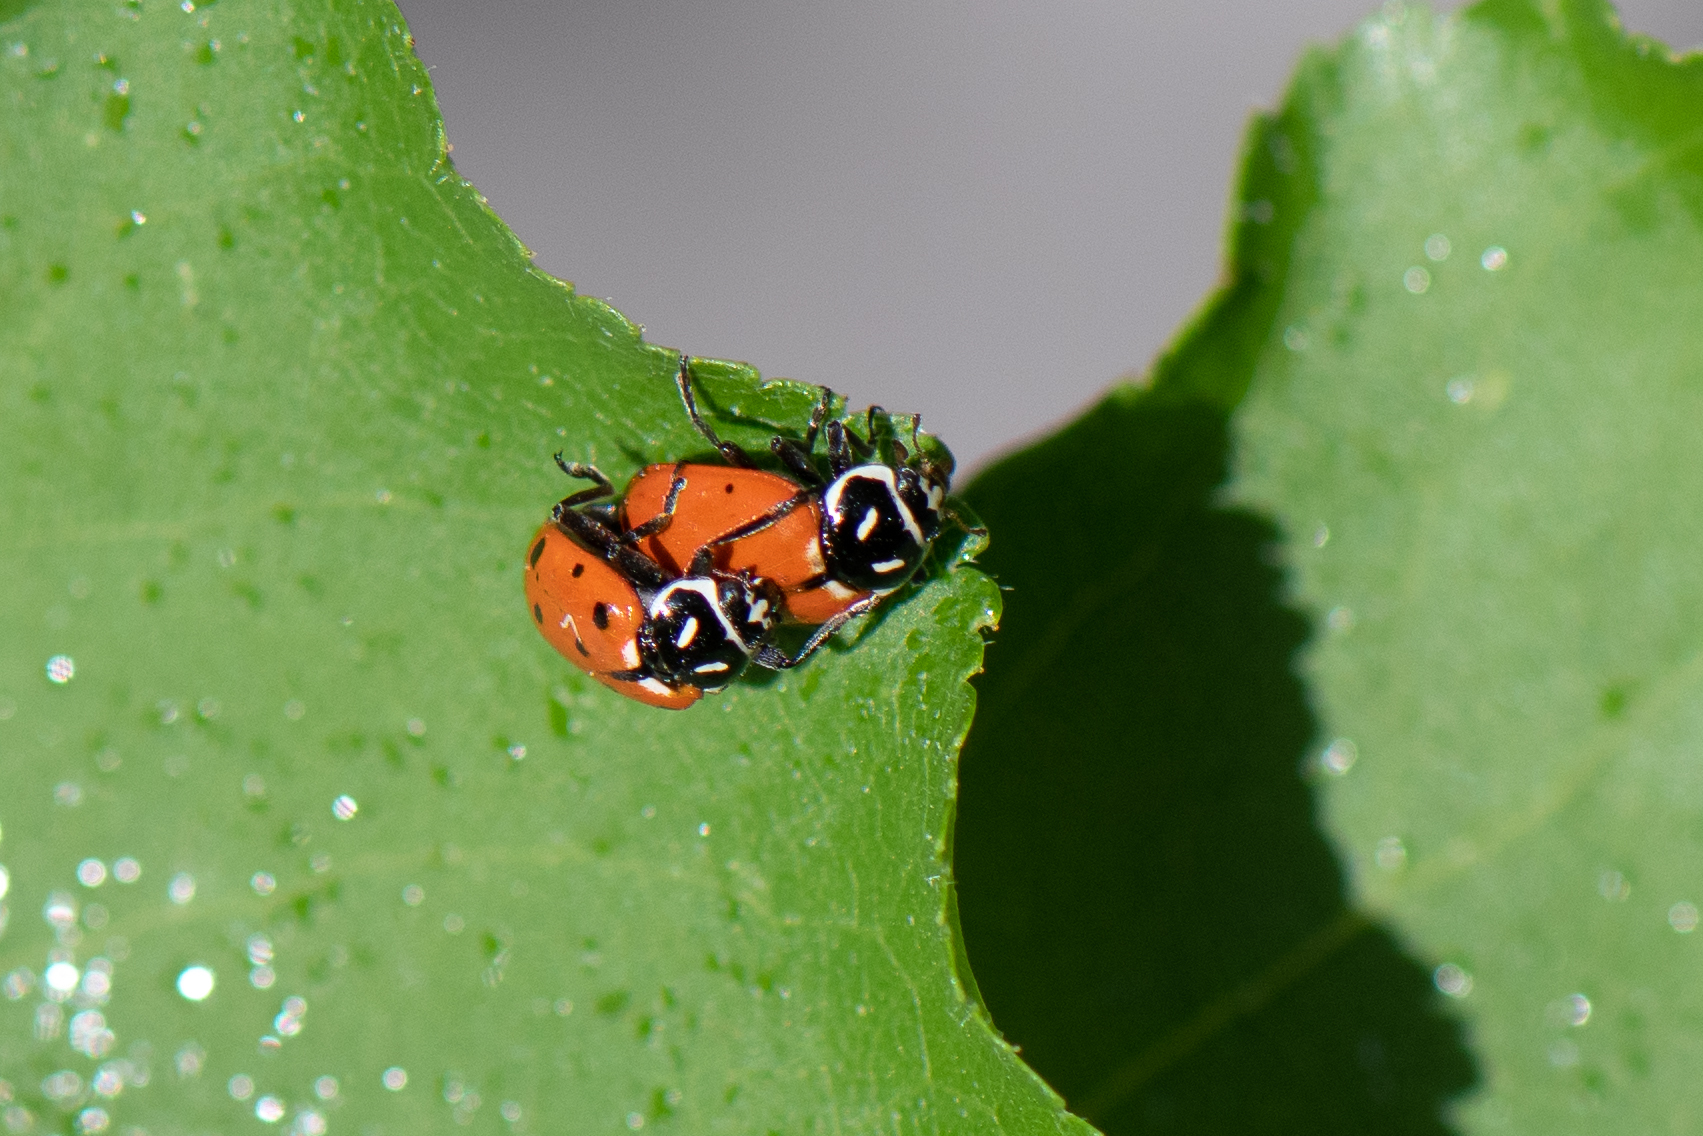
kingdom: Animalia
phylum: Arthropoda
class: Insecta
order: Coleoptera
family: Coccinellidae
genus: Hippodamia
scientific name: Hippodamia convergens
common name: Convergent lady beetle
